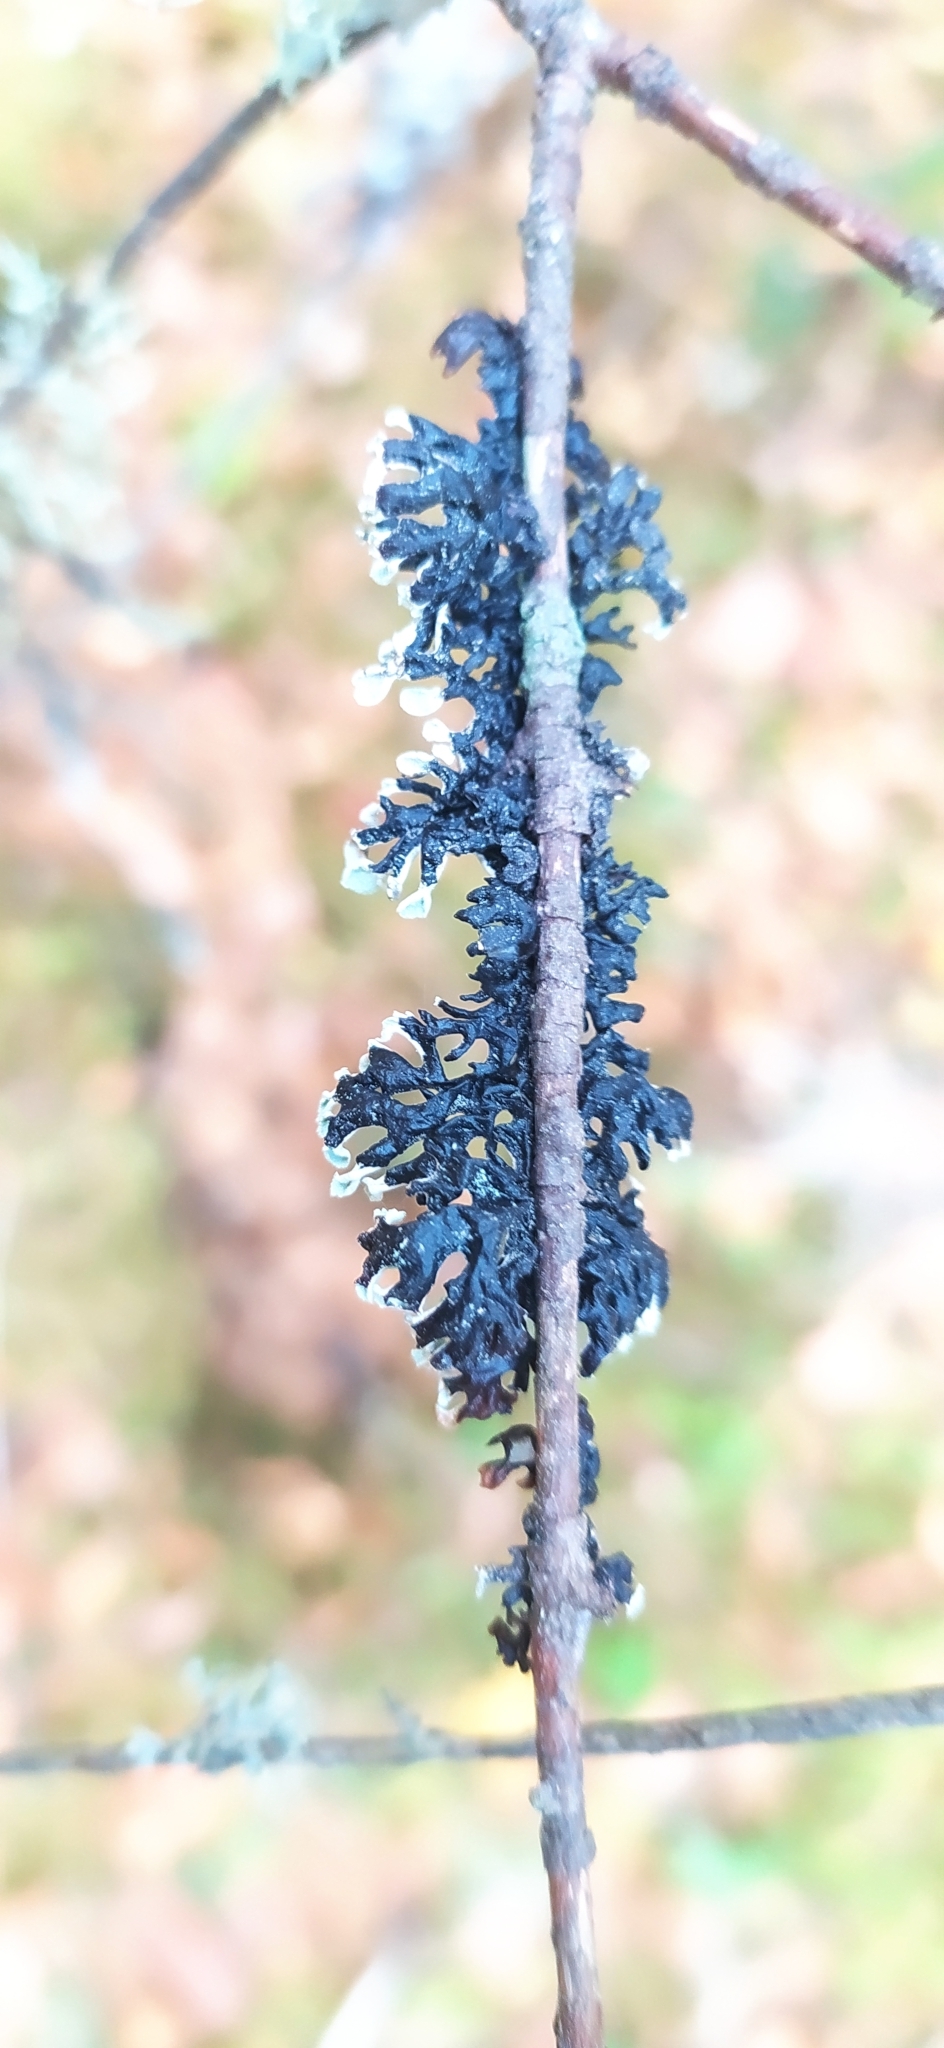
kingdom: Fungi
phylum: Ascomycota
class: Lecanoromycetes
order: Lecanorales
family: Parmeliaceae
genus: Hypogymnia
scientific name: Hypogymnia physodes
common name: Dark crottle
